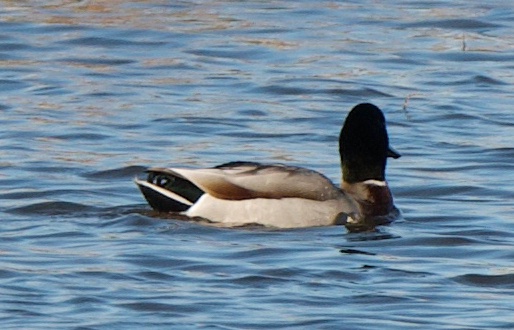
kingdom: Animalia
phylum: Chordata
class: Aves
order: Anseriformes
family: Anatidae
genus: Anas
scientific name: Anas platyrhynchos
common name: Mallard
